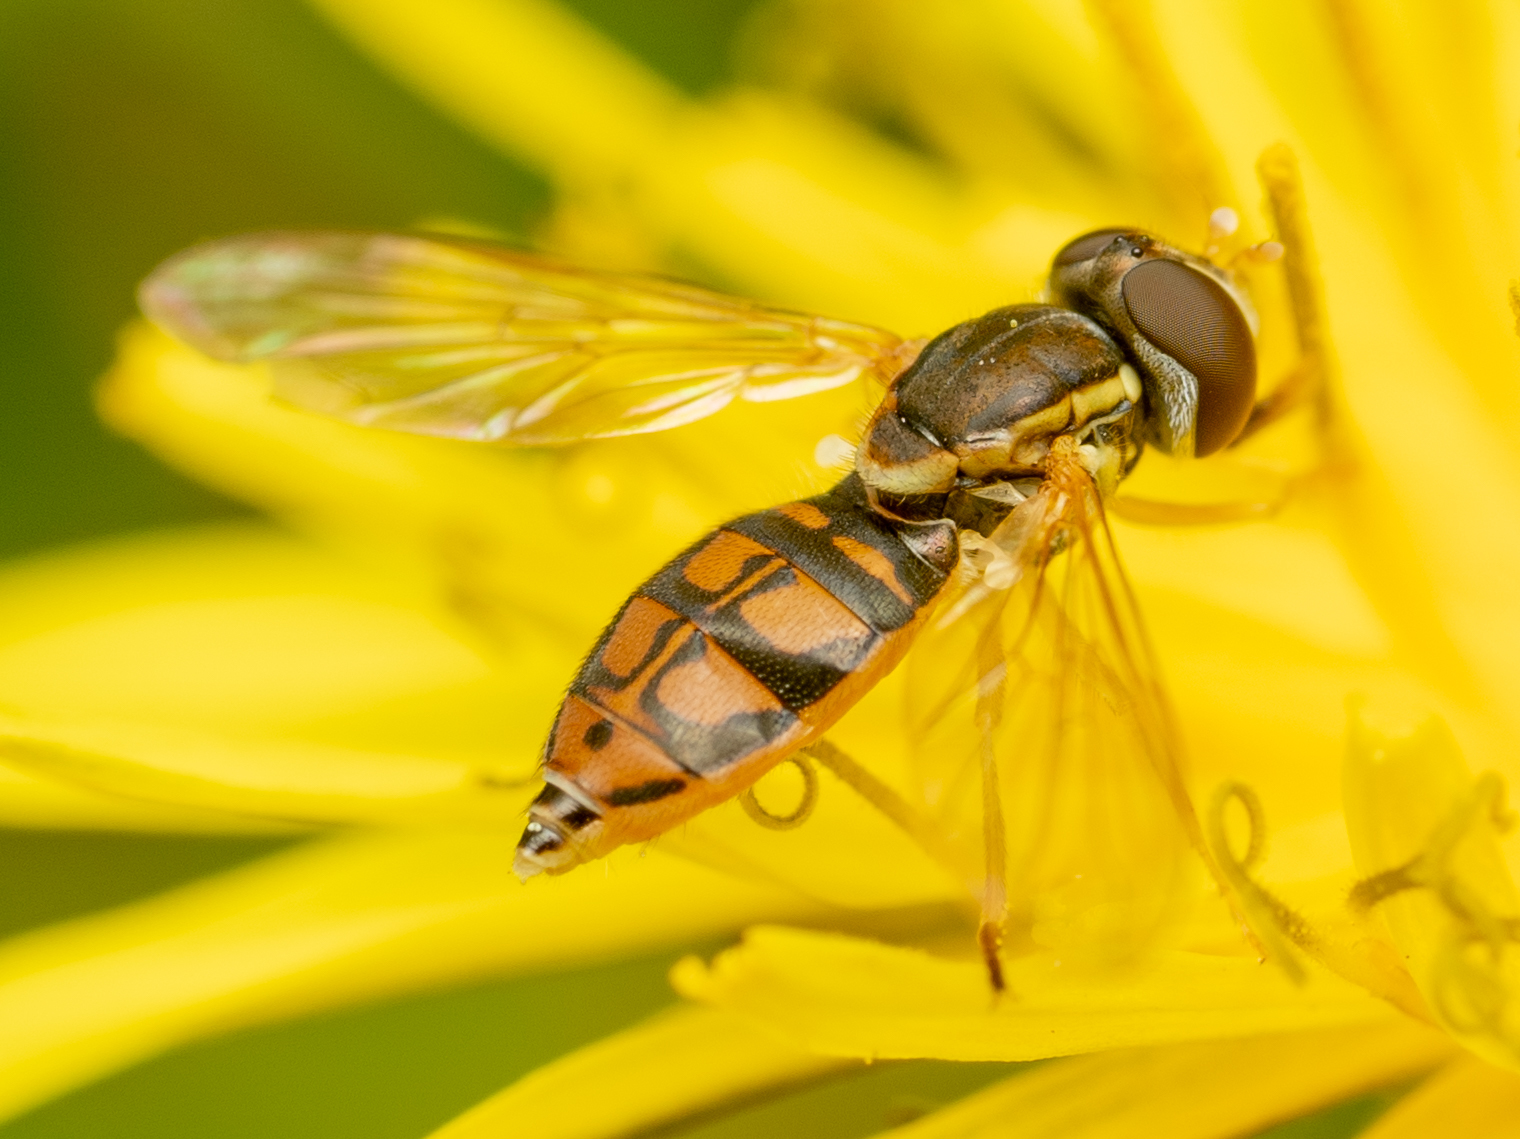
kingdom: Animalia
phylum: Arthropoda
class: Insecta
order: Diptera
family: Syrphidae
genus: Toxomerus
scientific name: Toxomerus marginatus
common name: Syrphid fly
